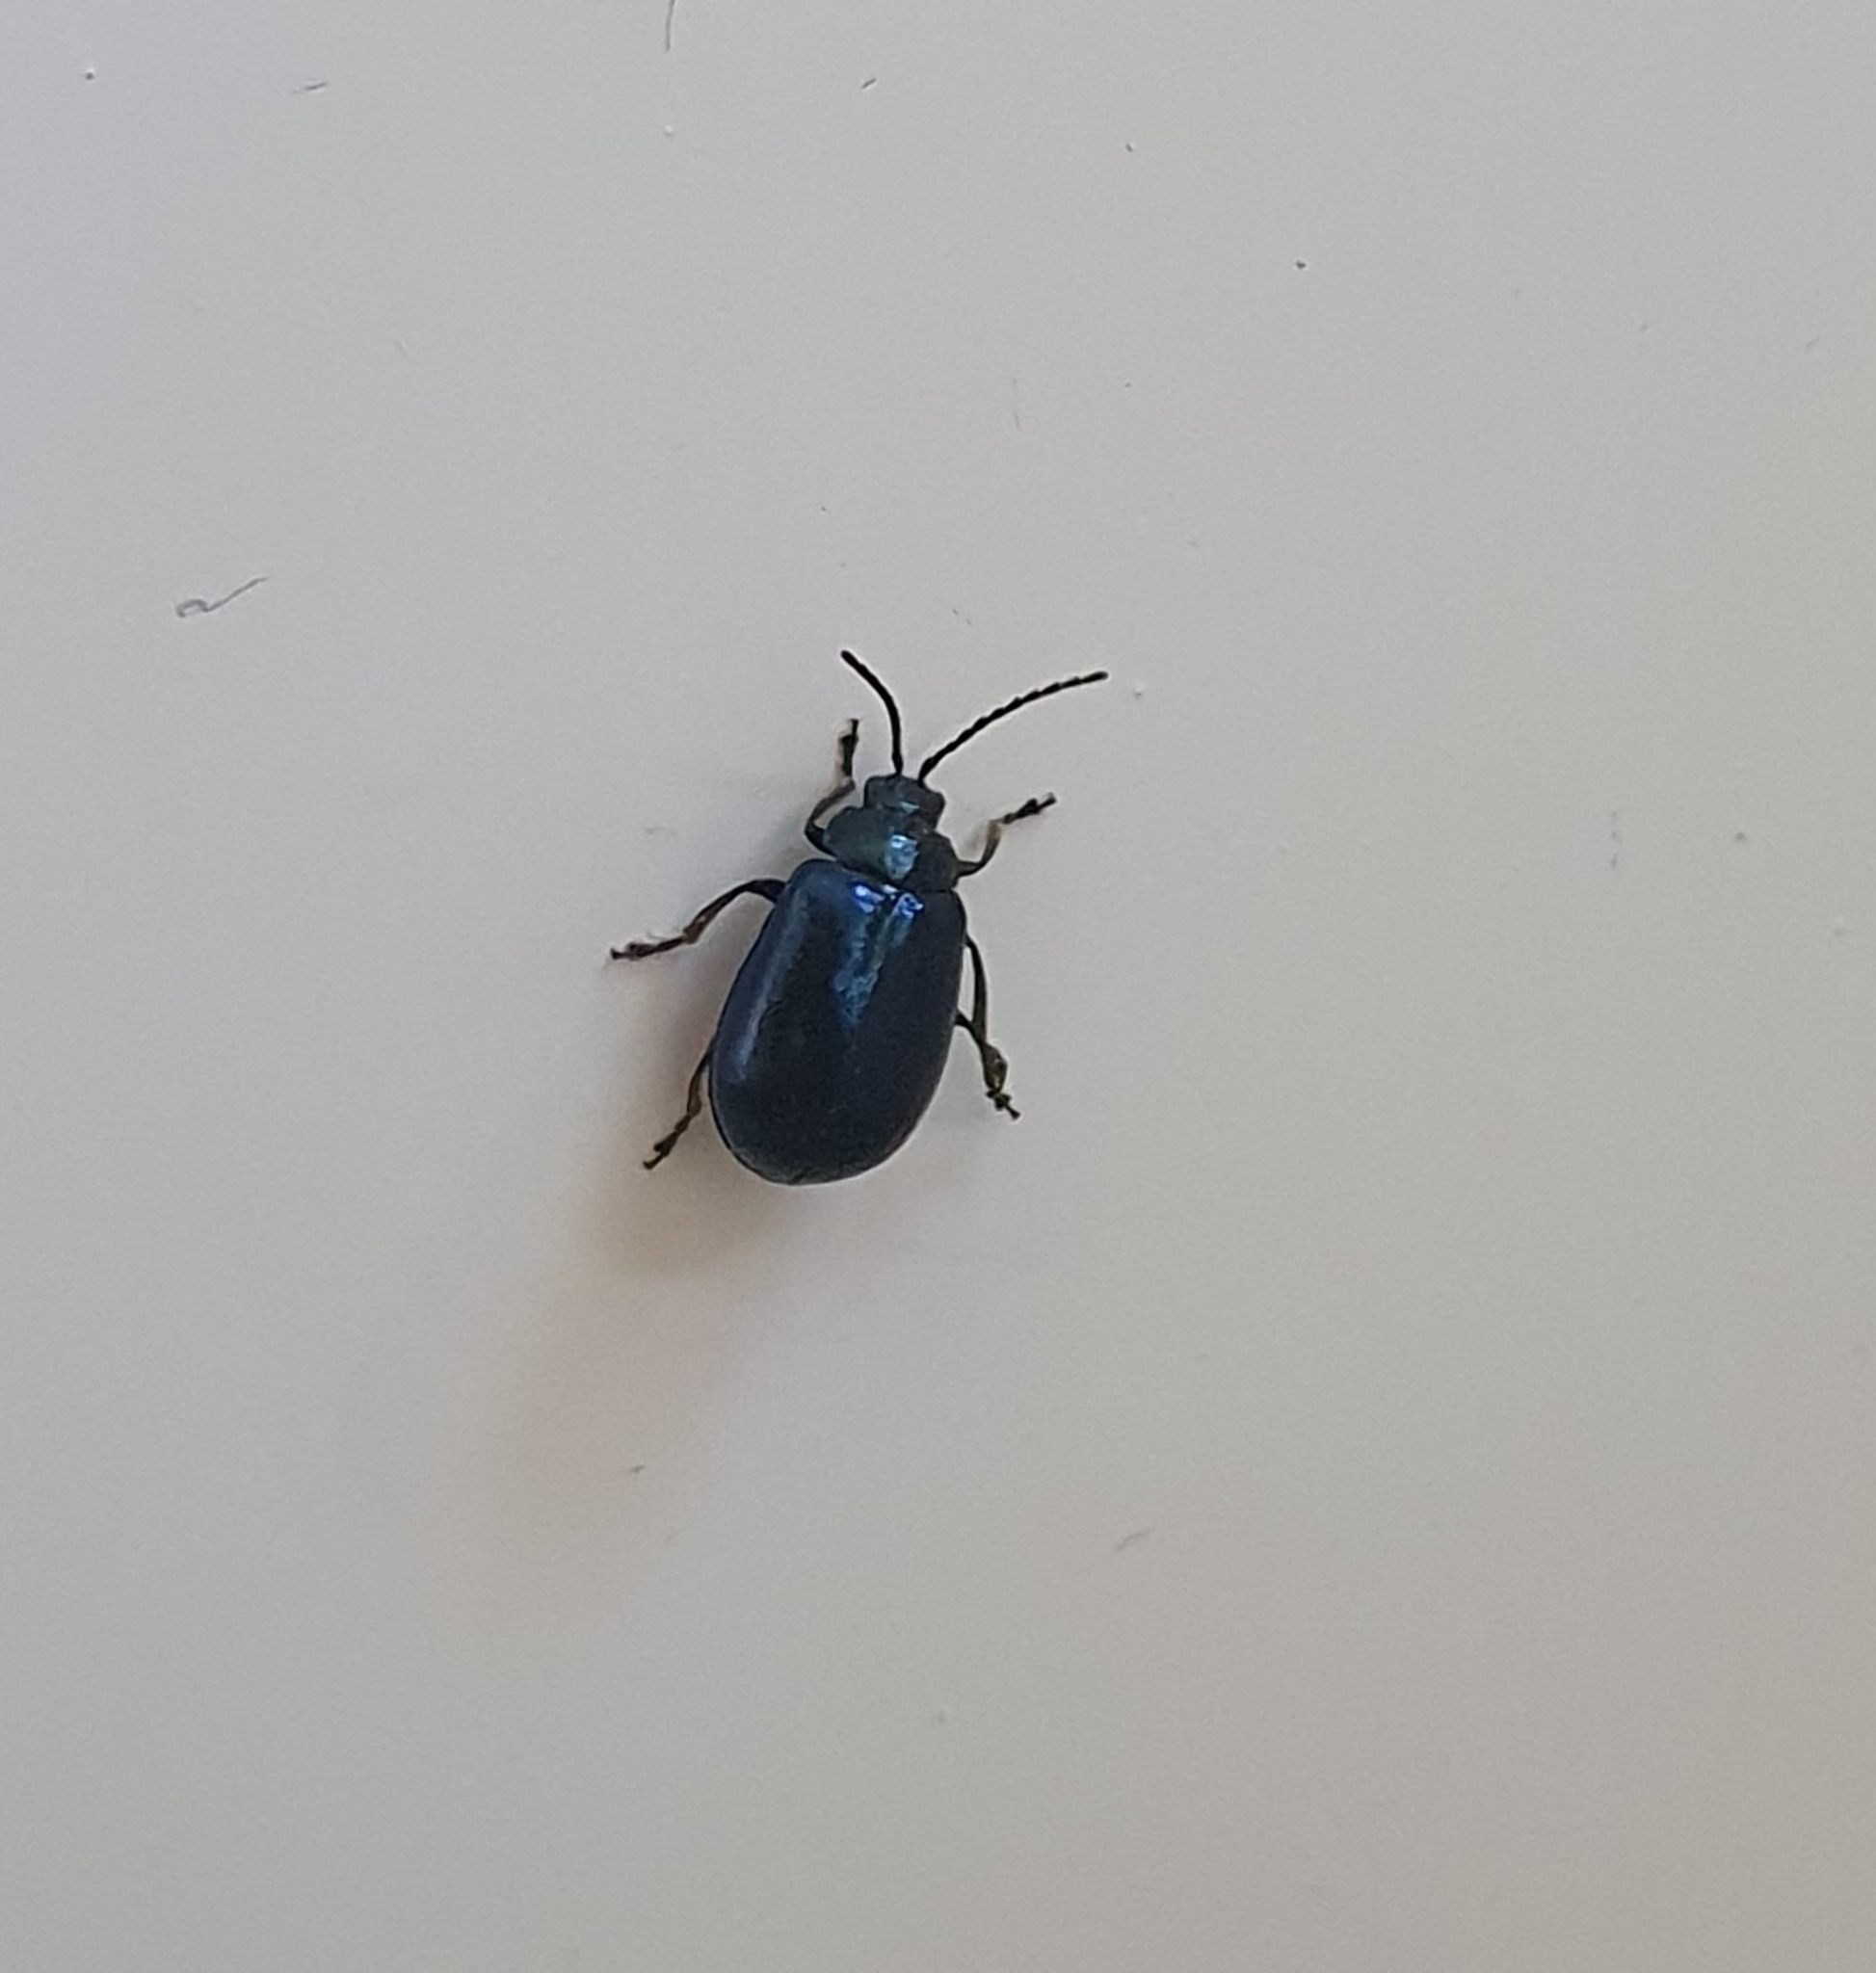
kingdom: Animalia
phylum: Arthropoda
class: Insecta
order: Coleoptera
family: Chrysomelidae
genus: Agelastica
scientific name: Agelastica alni
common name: Alder leaf beetle
